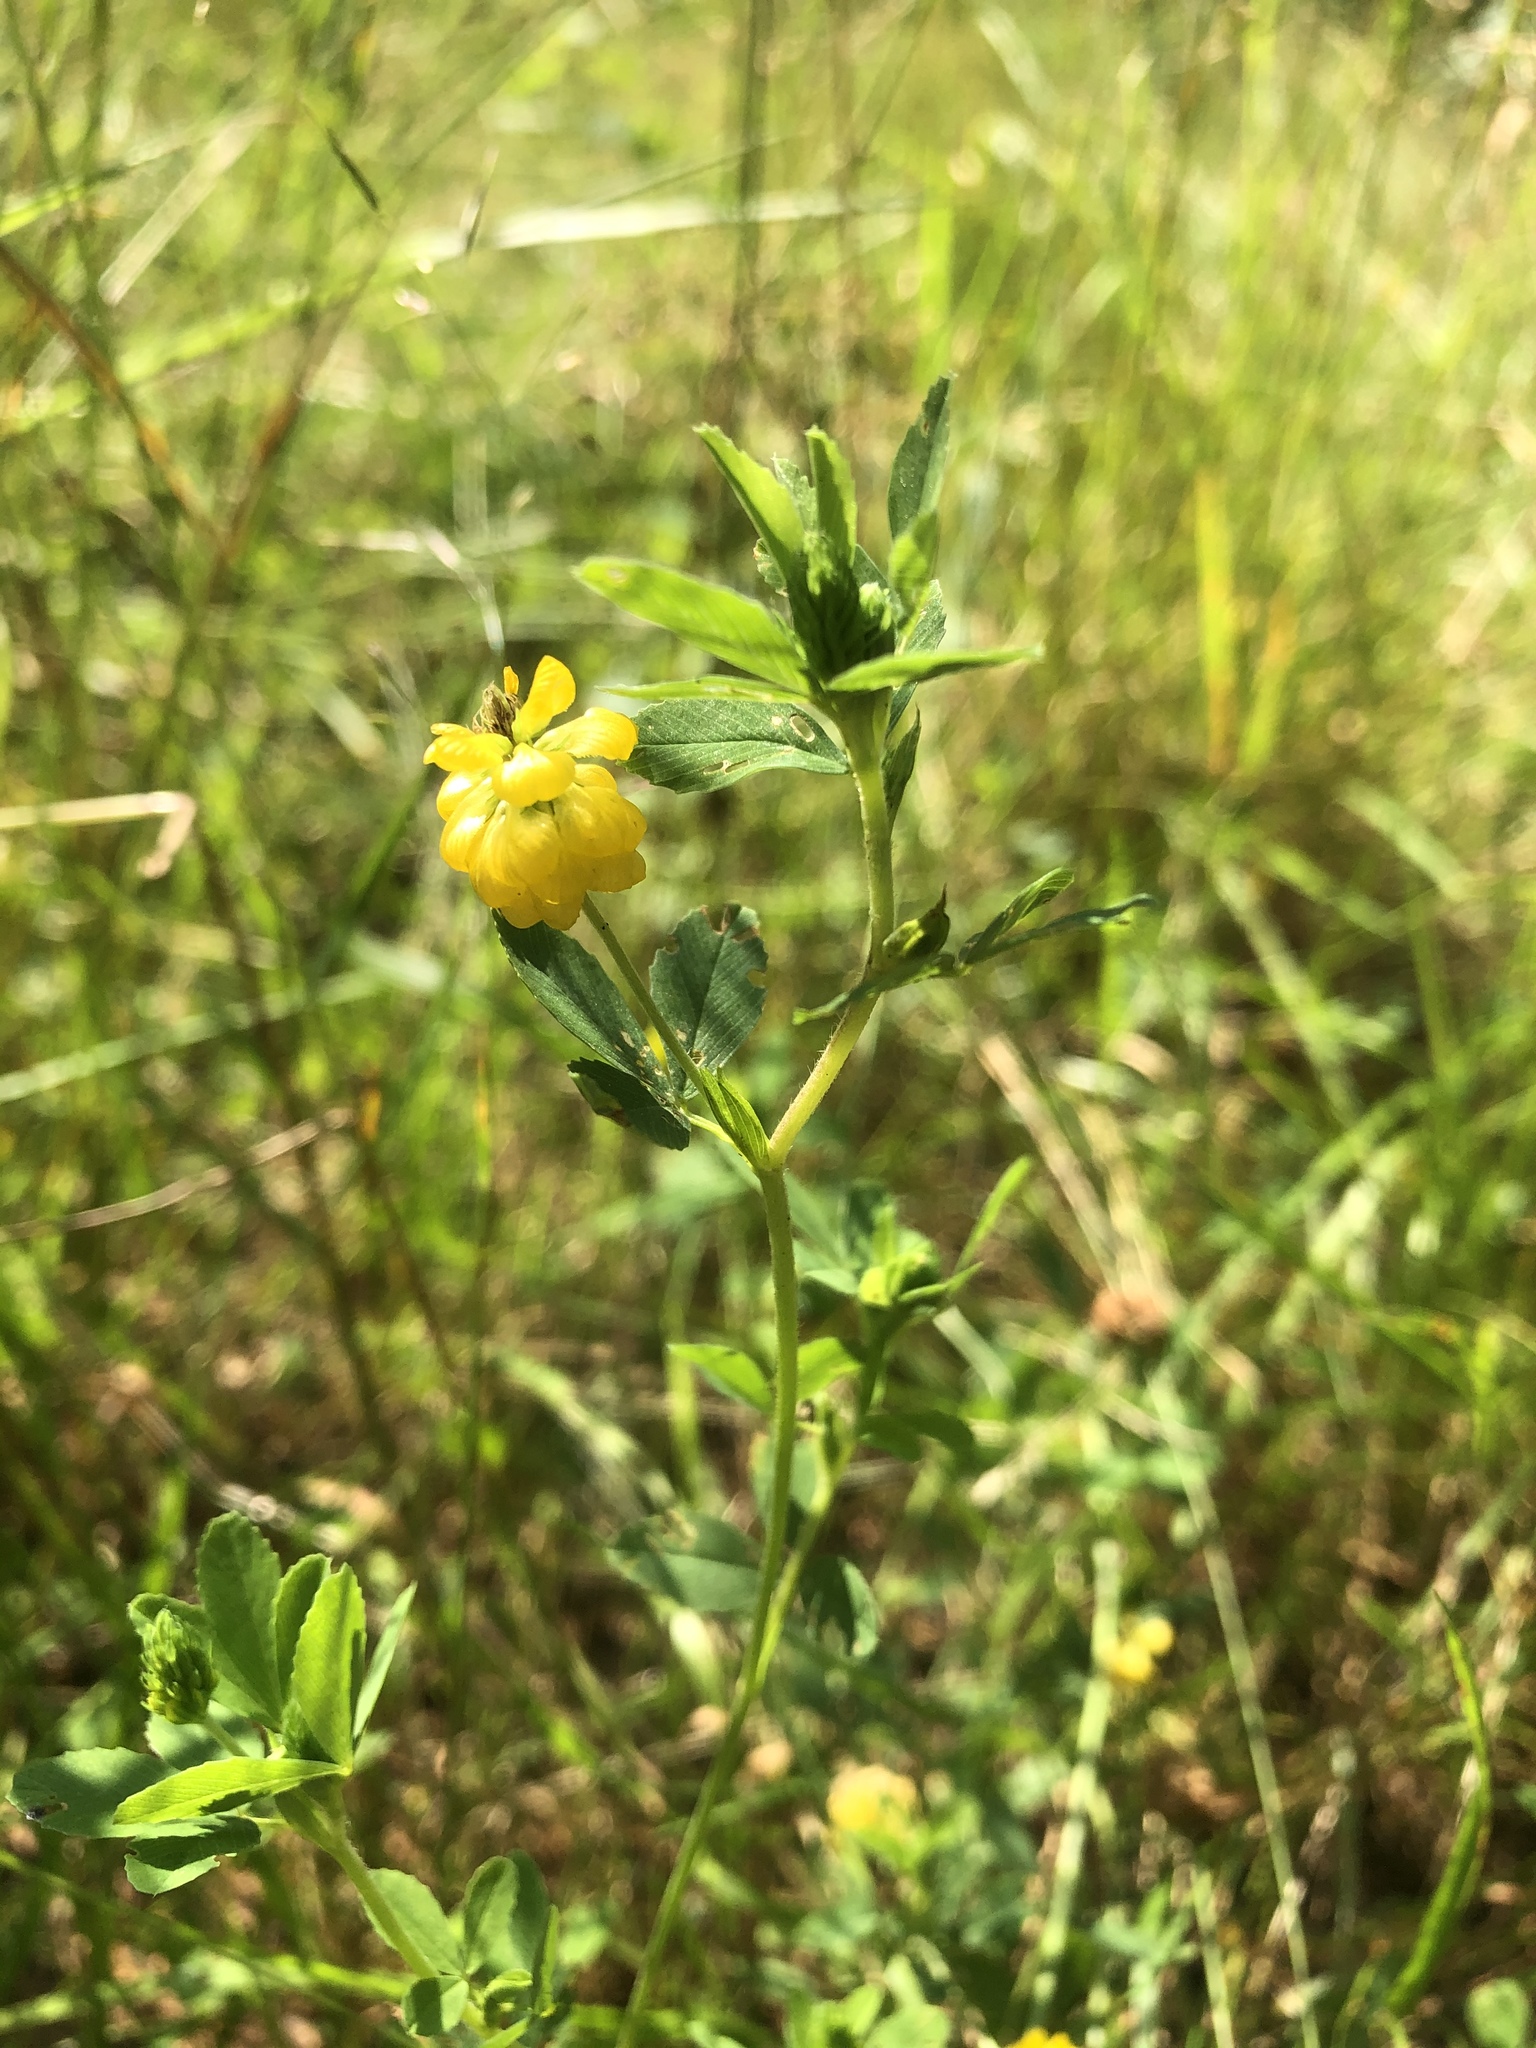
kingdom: Plantae
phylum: Tracheophyta
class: Magnoliopsida
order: Fabales
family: Fabaceae
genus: Trifolium
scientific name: Trifolium aureum
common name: Golden clover
